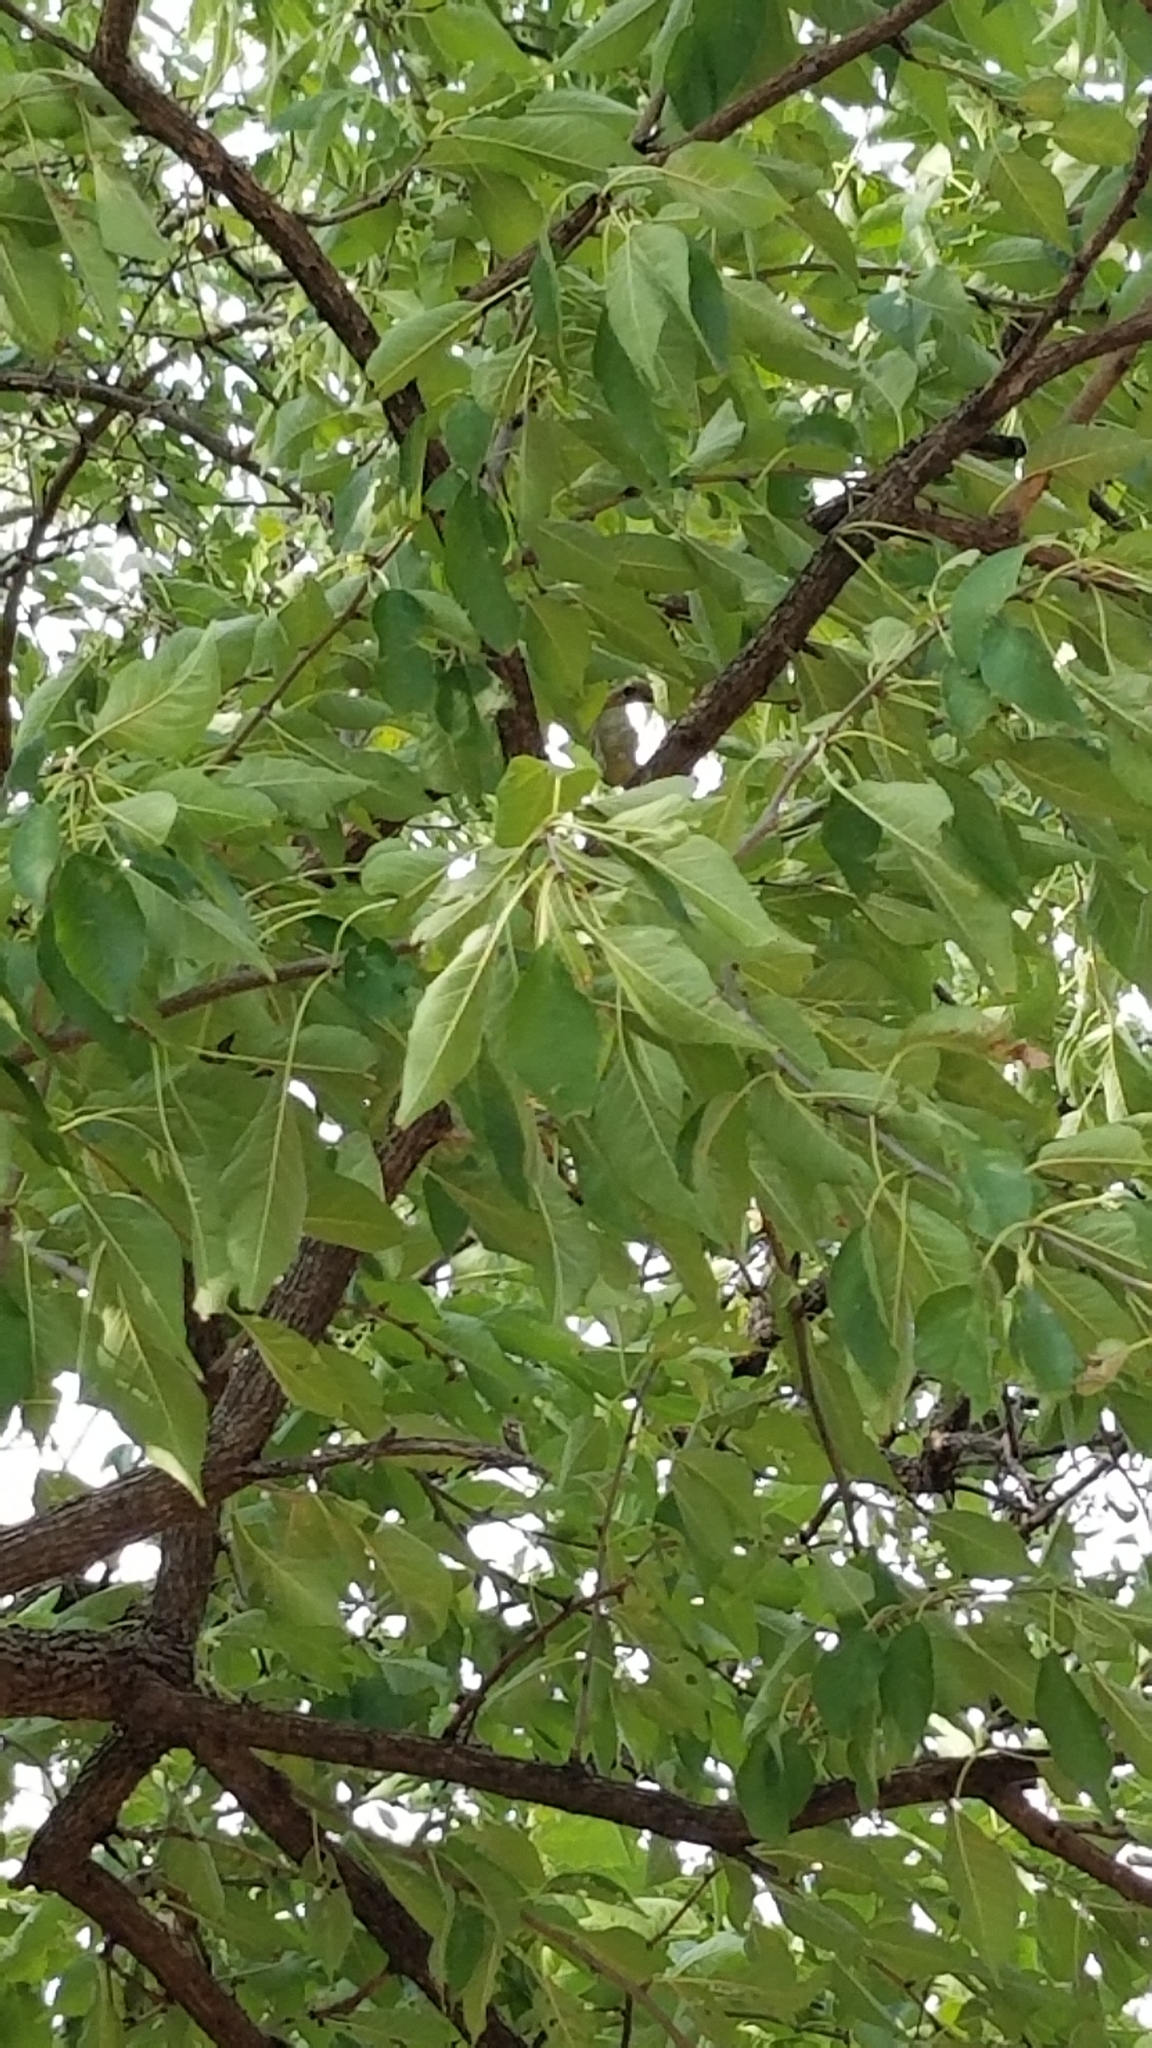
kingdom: Plantae
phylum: Tracheophyta
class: Magnoliopsida
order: Rosales
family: Moraceae
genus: Maclura
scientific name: Maclura pomifera
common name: Osage-orange
